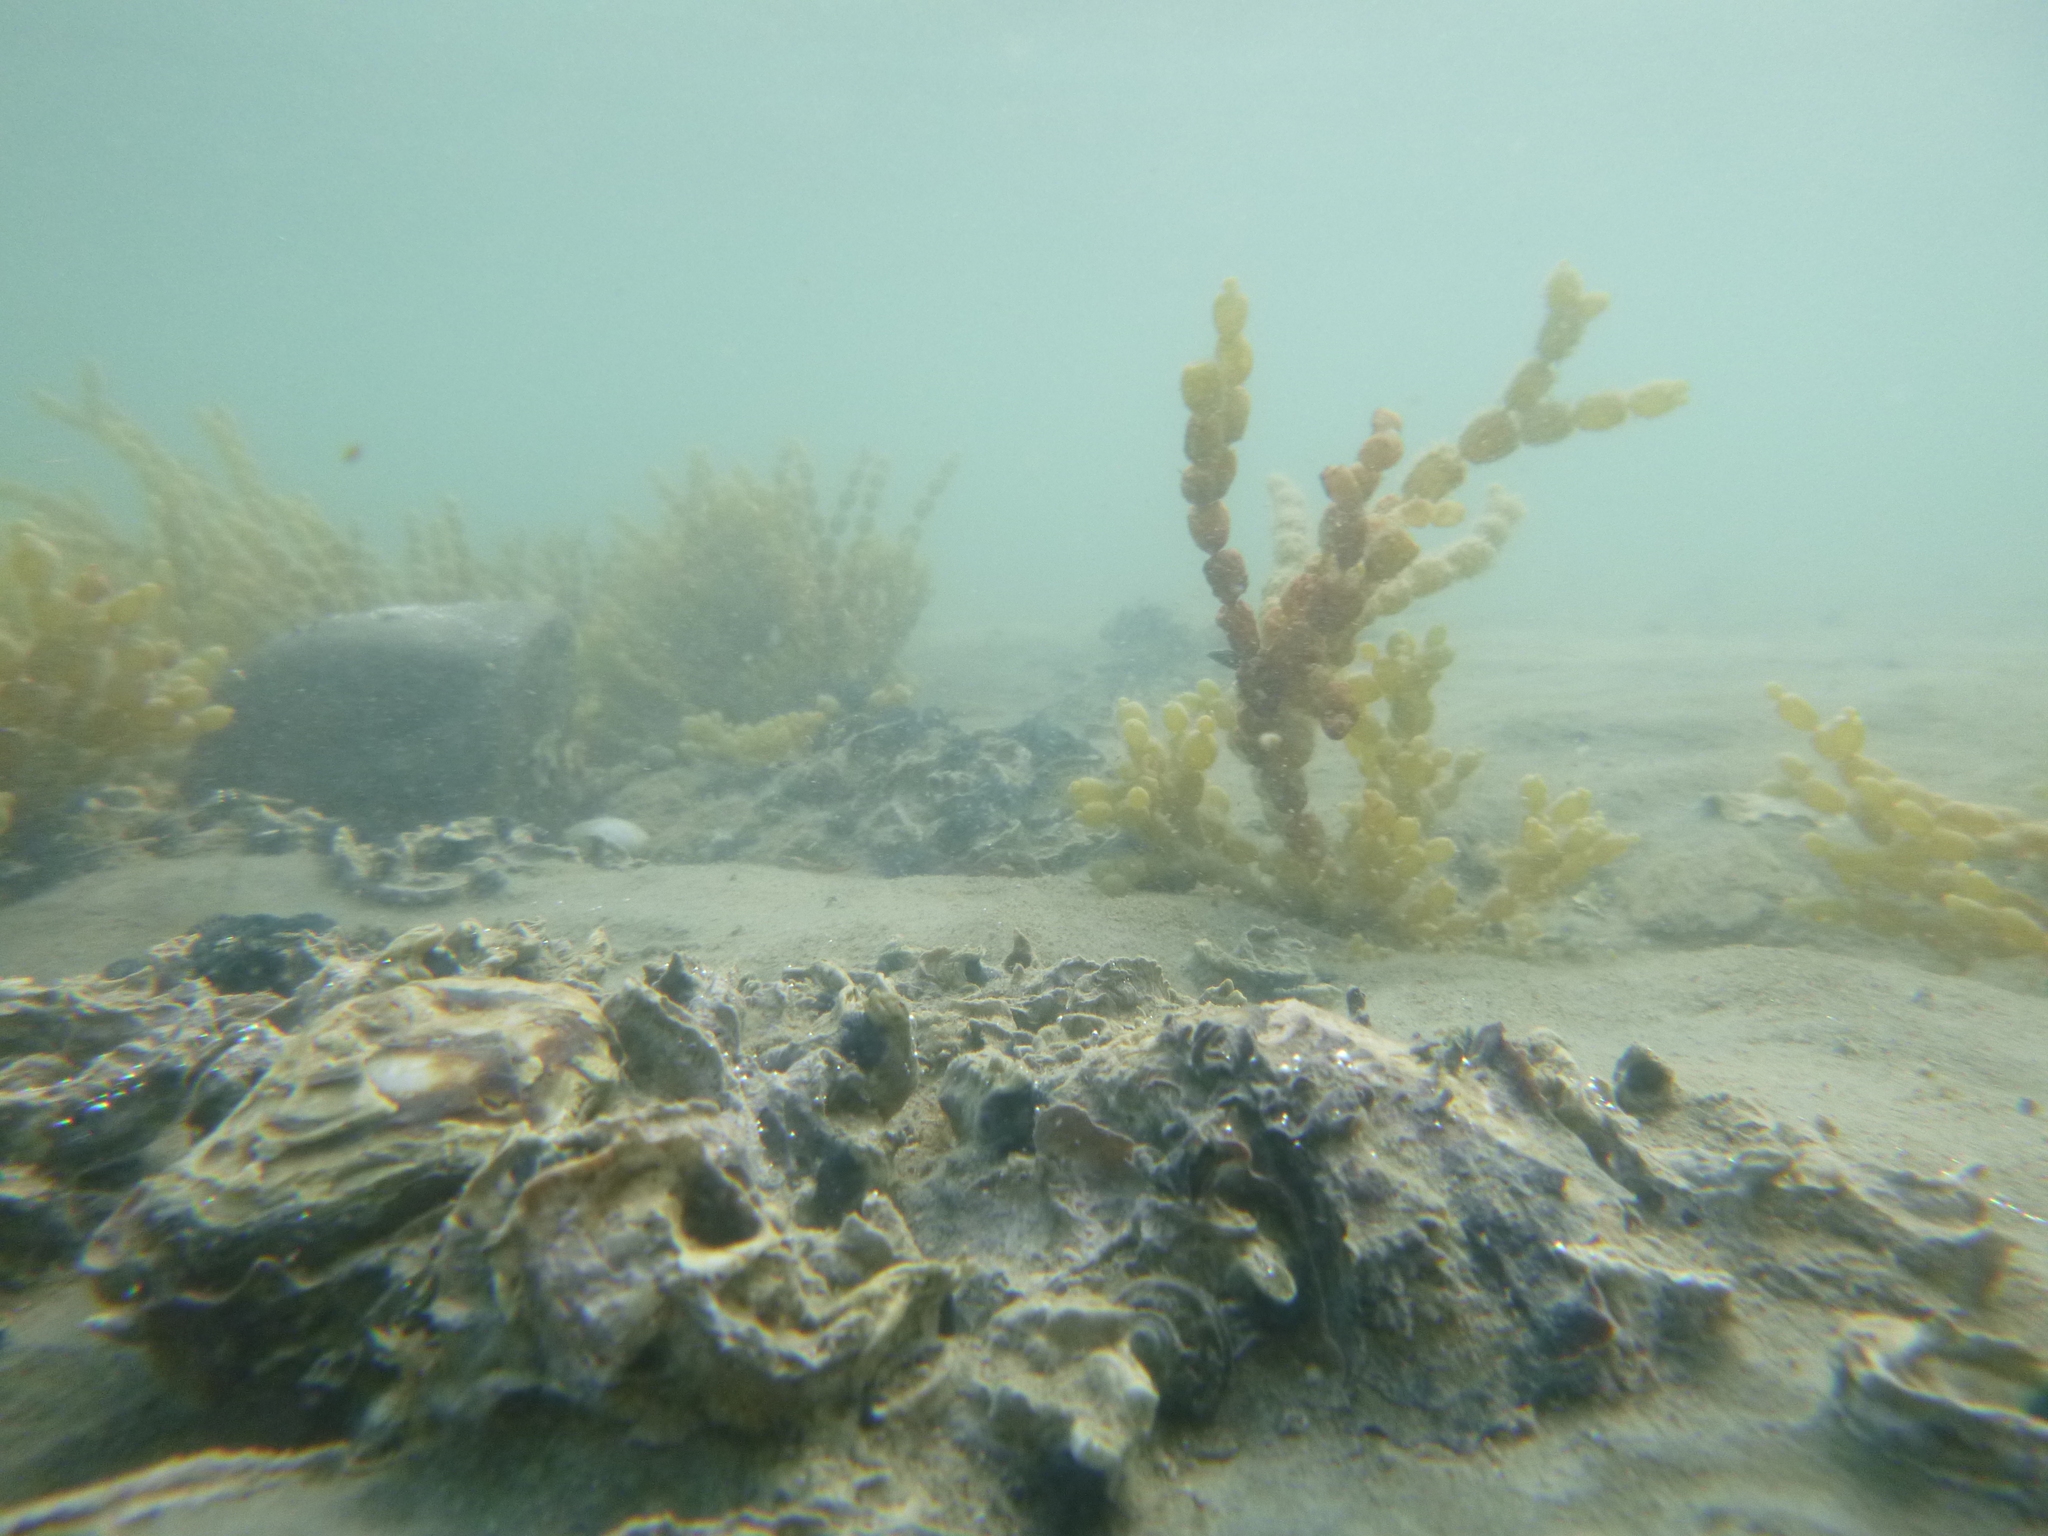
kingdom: Animalia
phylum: Mollusca
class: Bivalvia
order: Ostreida
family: Ostreidae
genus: Saccostrea
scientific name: Saccostrea glomerata
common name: Sydney cupped oyster
